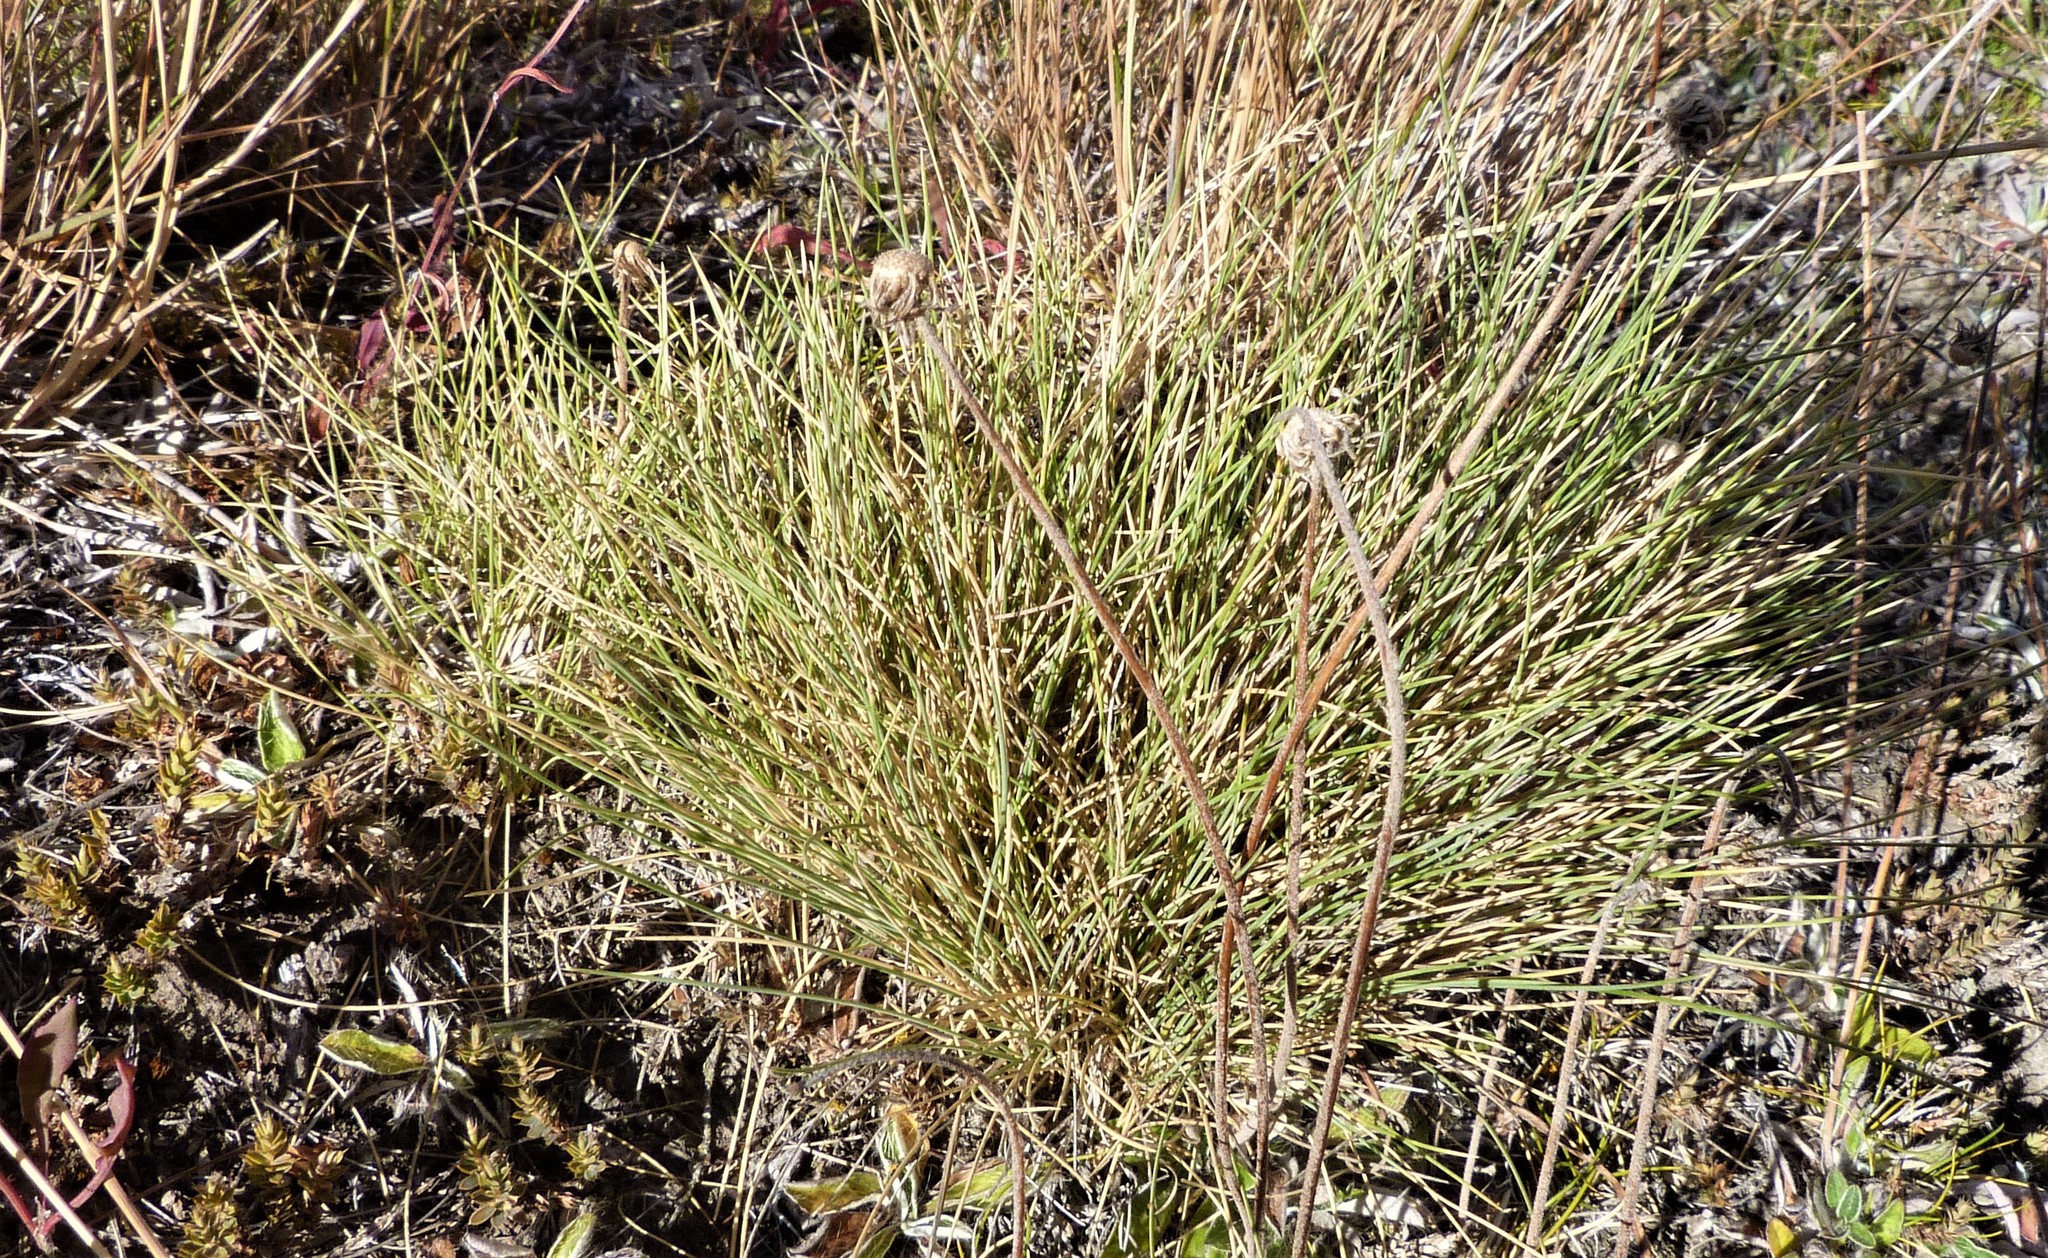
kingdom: Plantae
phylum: Tracheophyta
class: Liliopsida
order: Poales
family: Poaceae
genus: Poa
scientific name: Poa colensoi
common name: Blue tussock
